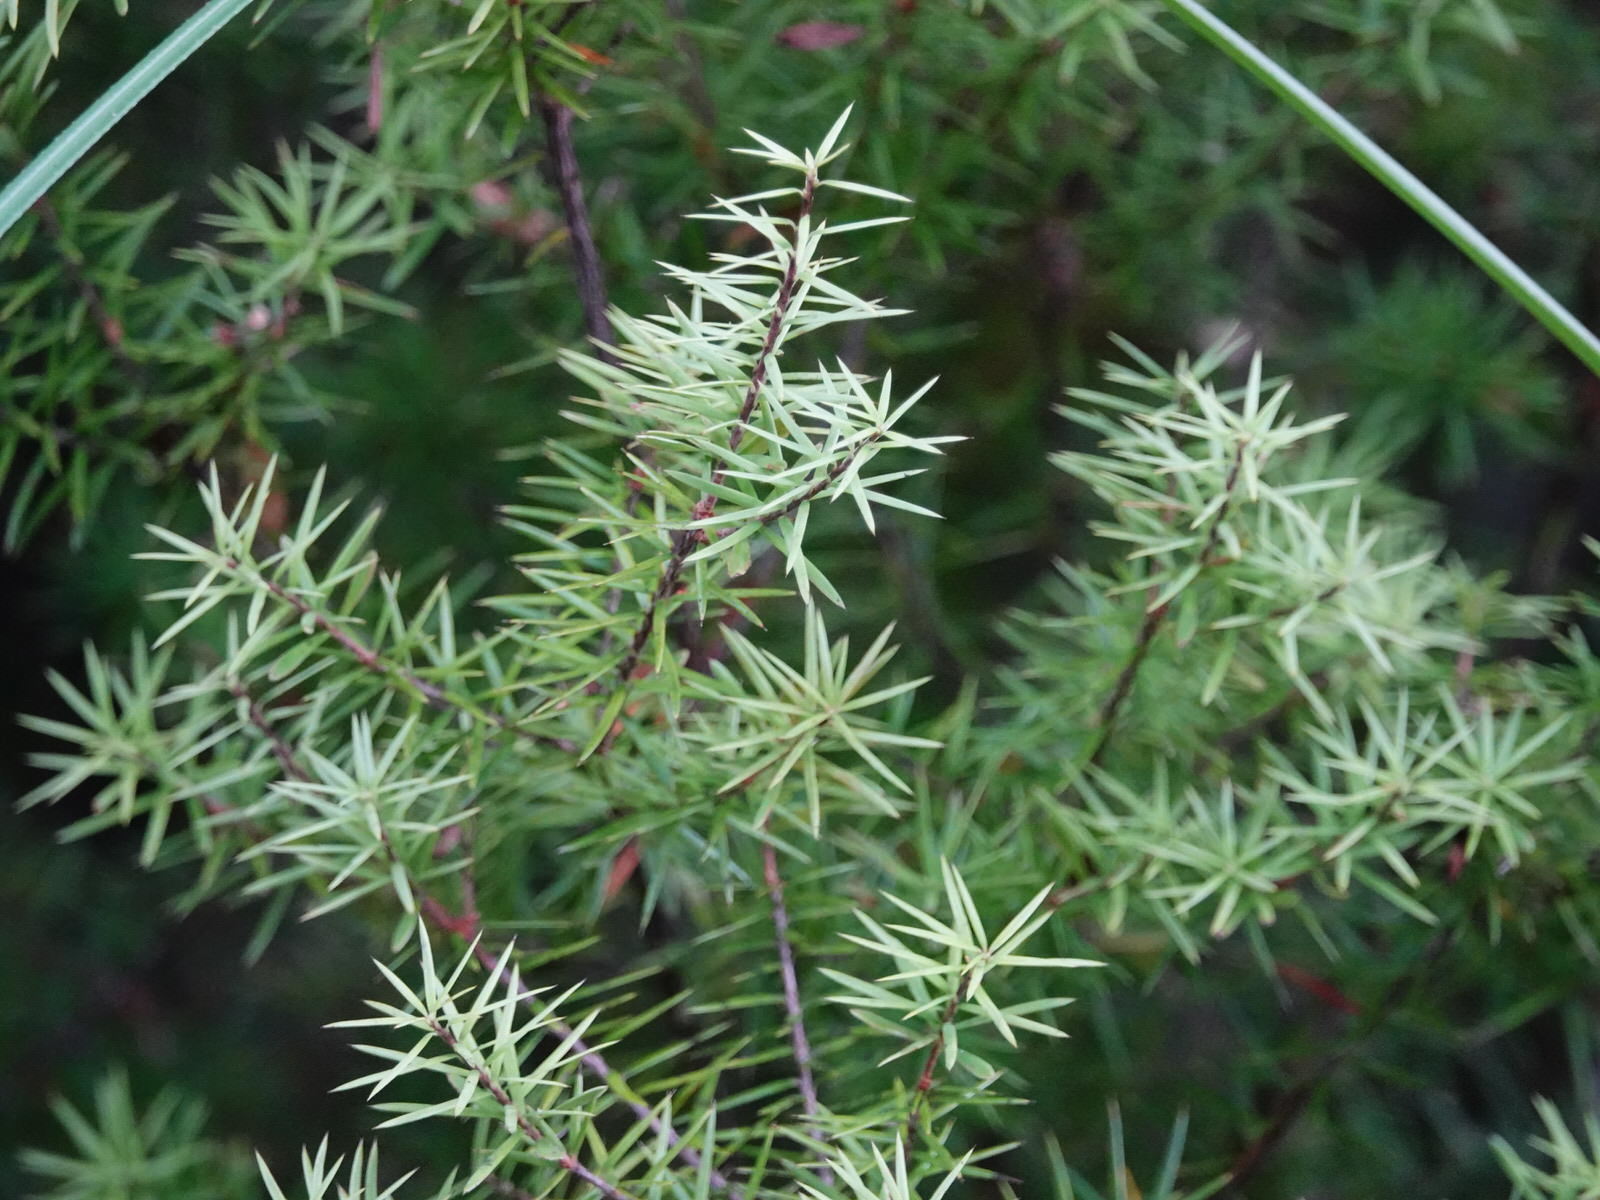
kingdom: Plantae
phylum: Tracheophyta
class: Magnoliopsida
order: Ericales
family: Ericaceae
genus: Leptecophylla
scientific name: Leptecophylla juniperina
